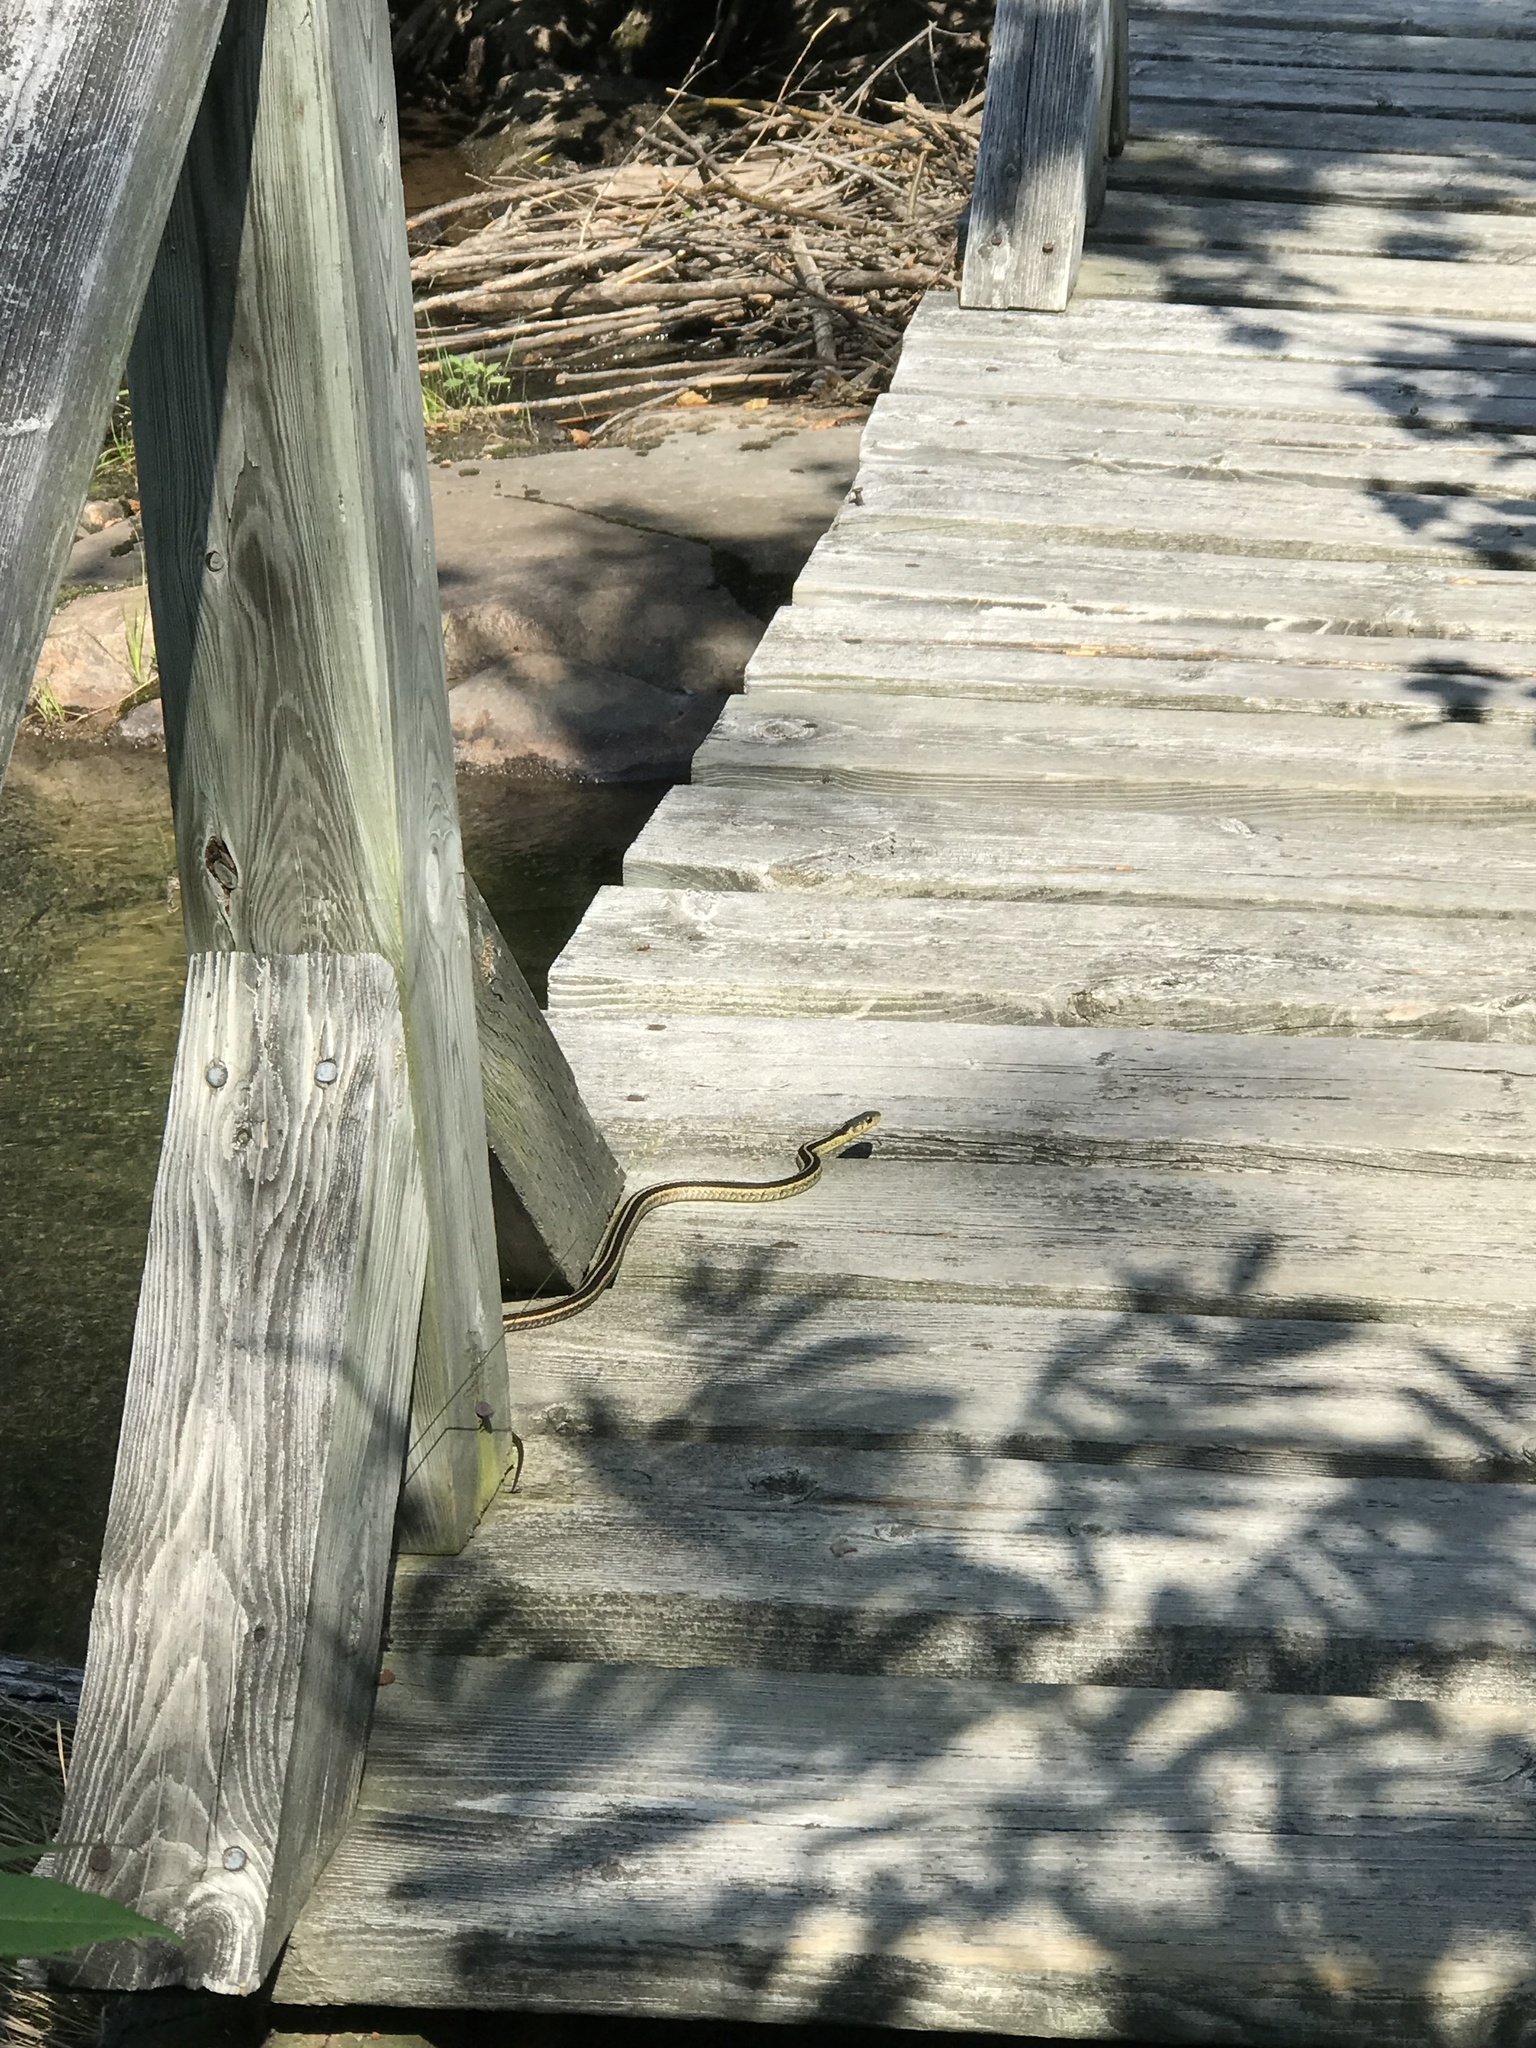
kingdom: Animalia
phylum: Chordata
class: Squamata
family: Colubridae
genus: Thamnophis
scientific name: Thamnophis sirtalis
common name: Common garter snake
